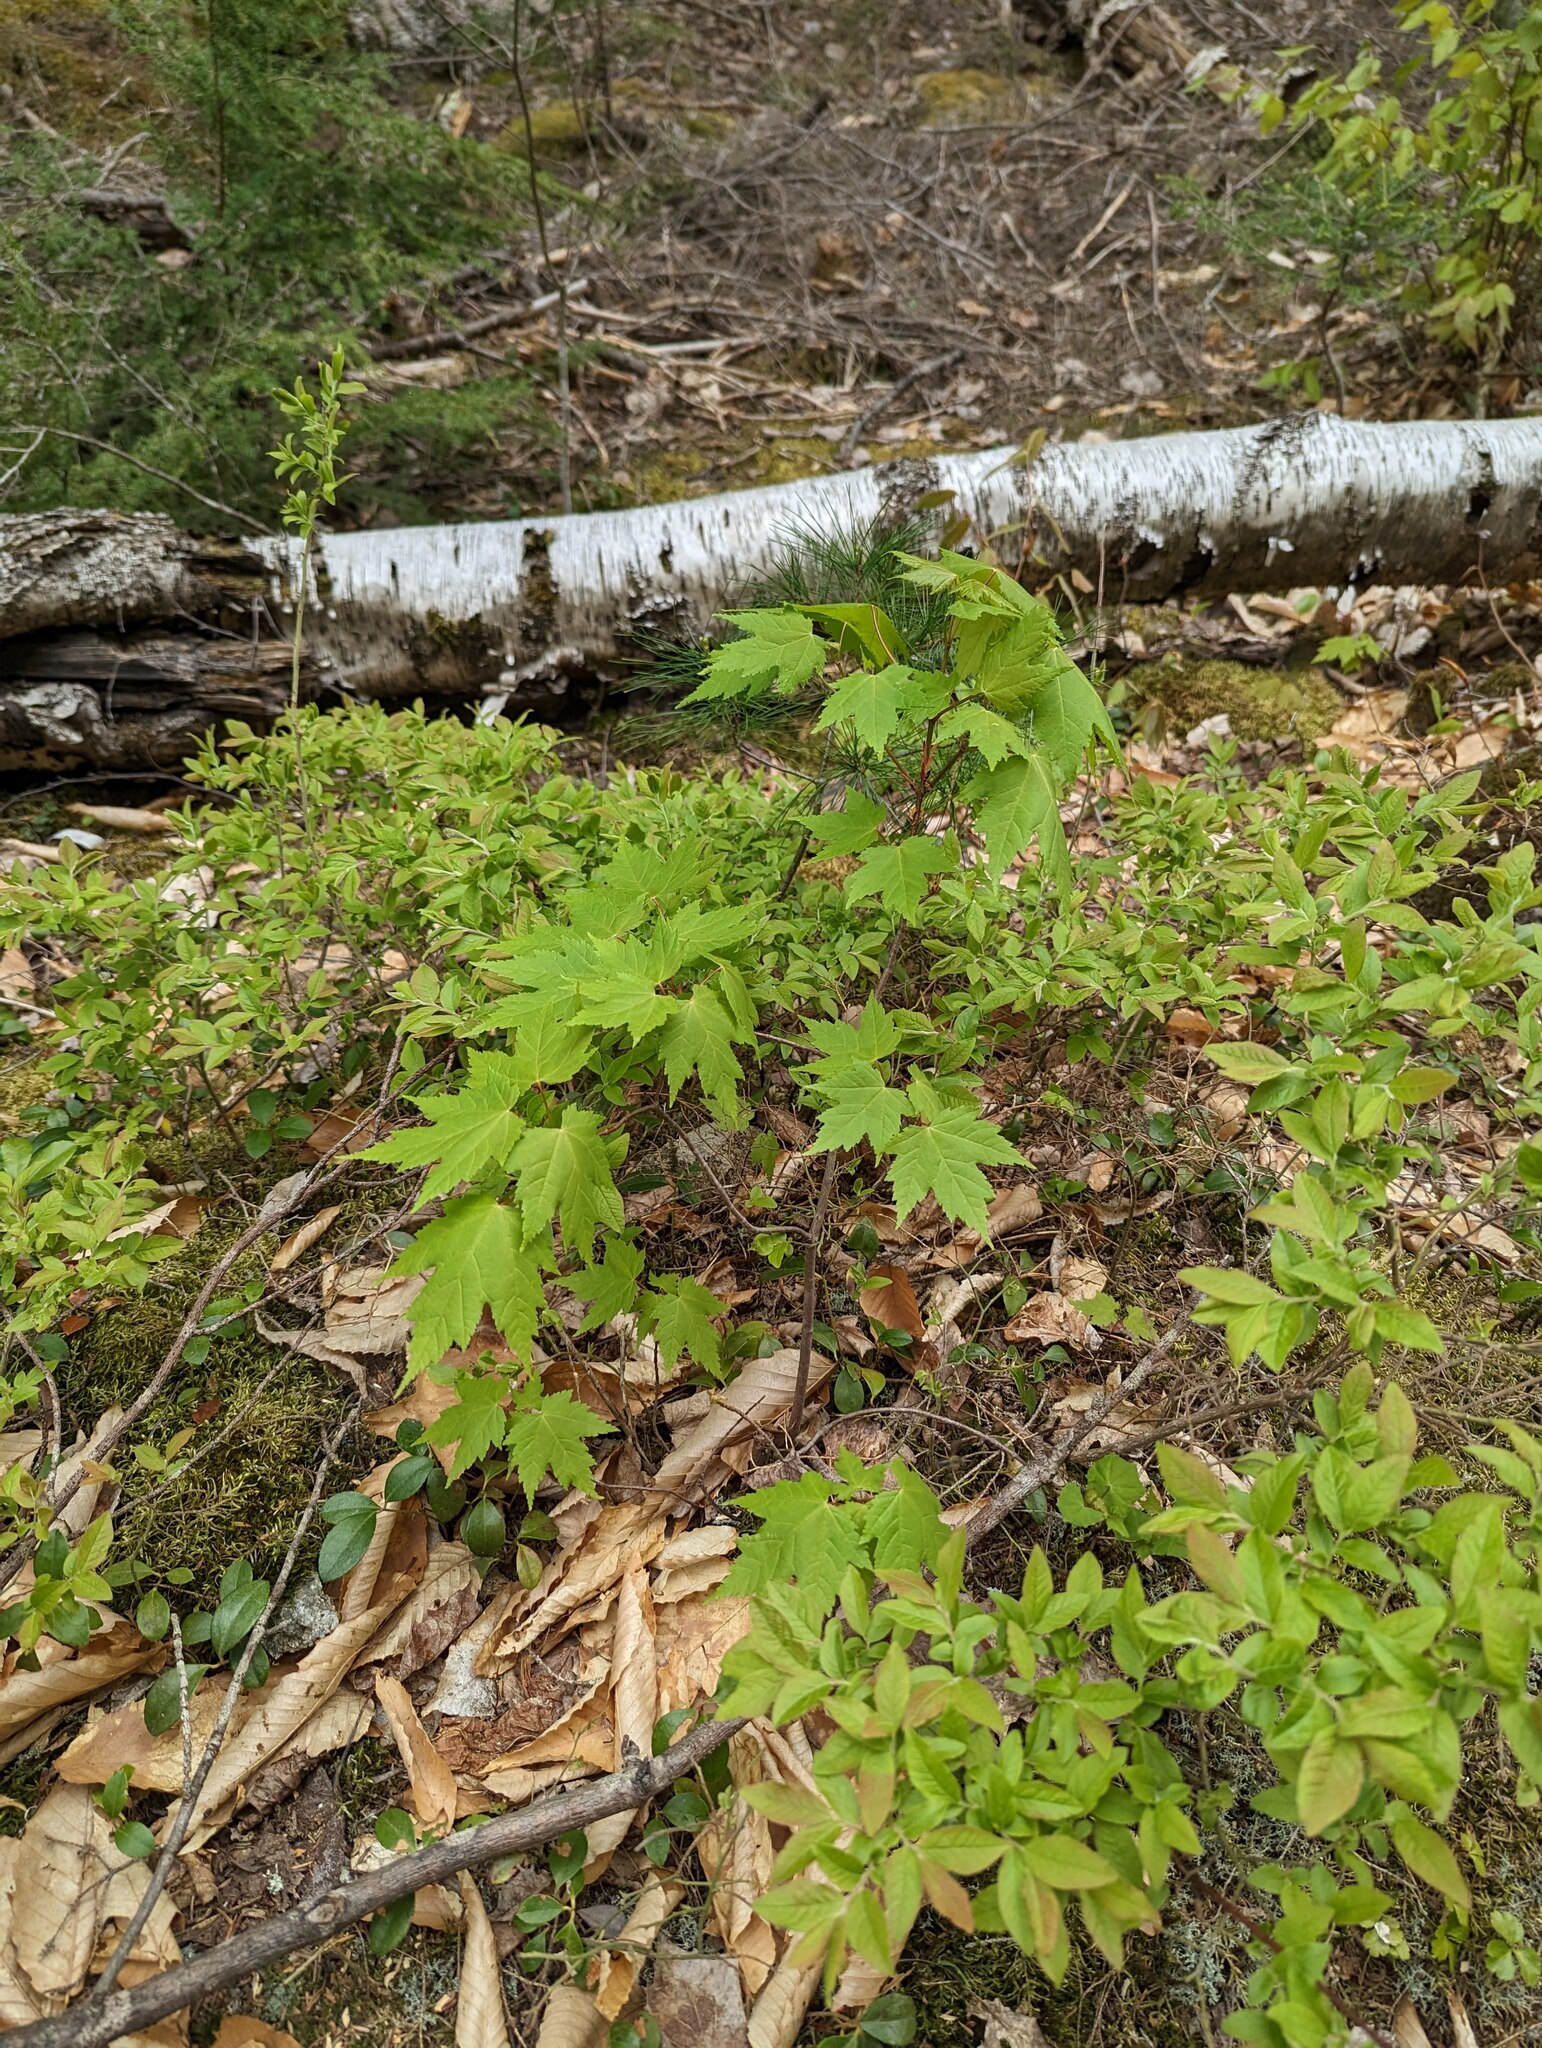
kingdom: Plantae
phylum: Tracheophyta
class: Magnoliopsida
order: Sapindales
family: Sapindaceae
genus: Acer
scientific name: Acer rubrum
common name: Red maple
